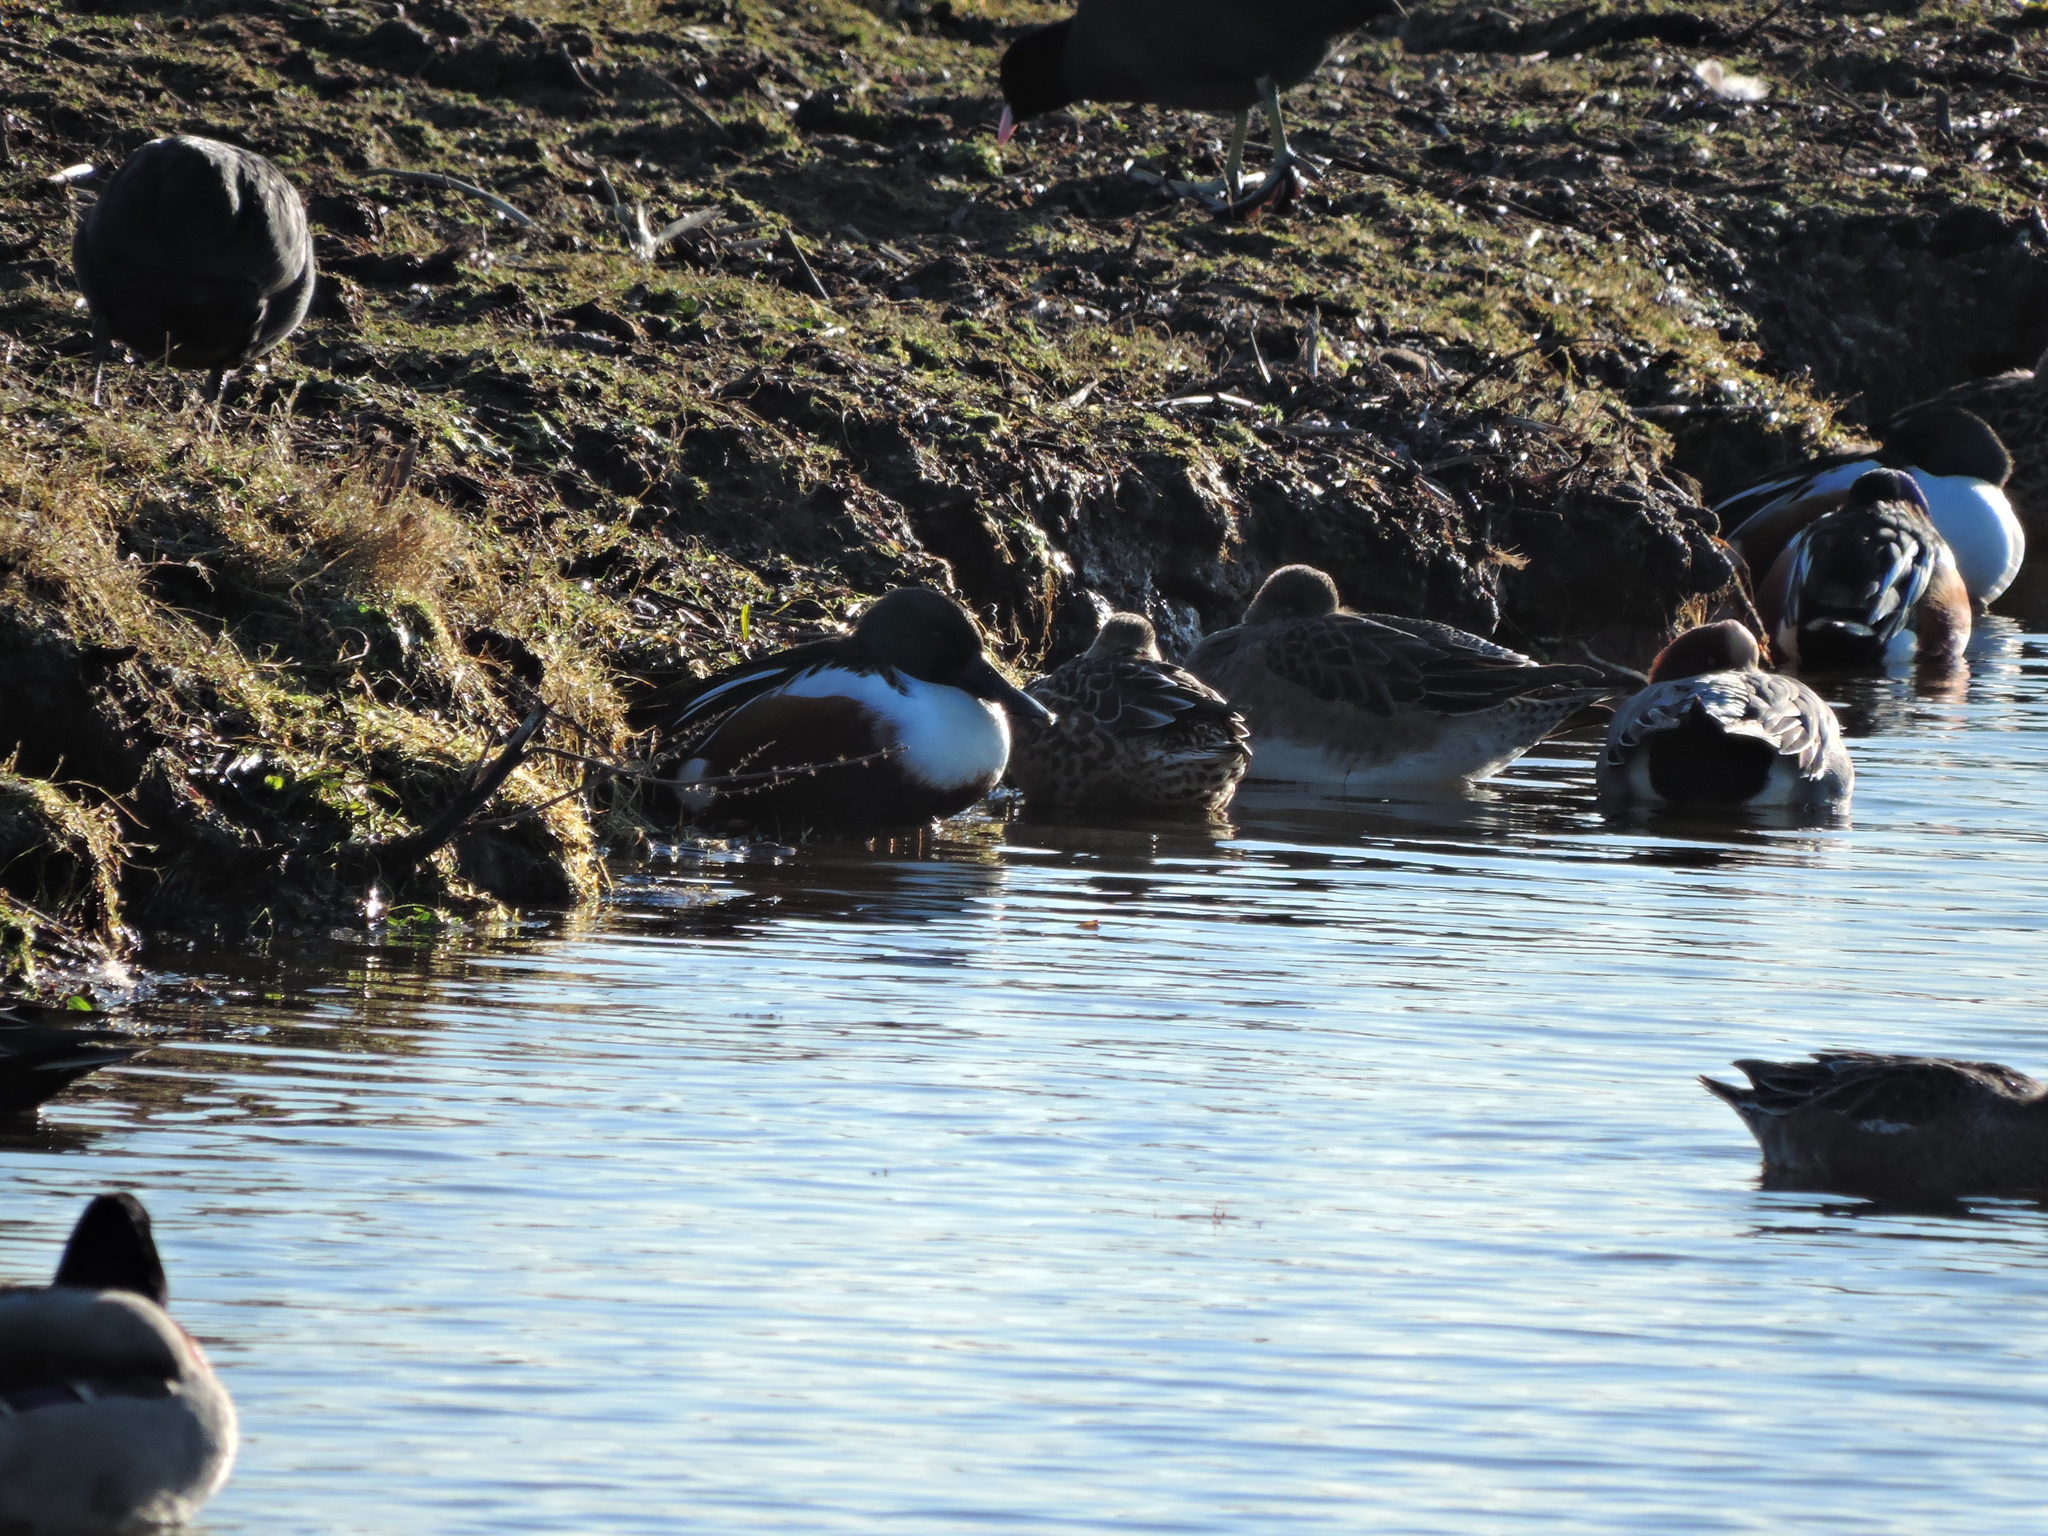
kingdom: Animalia
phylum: Chordata
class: Aves
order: Anseriformes
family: Anatidae
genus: Spatula
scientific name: Spatula clypeata
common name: Northern shoveler
